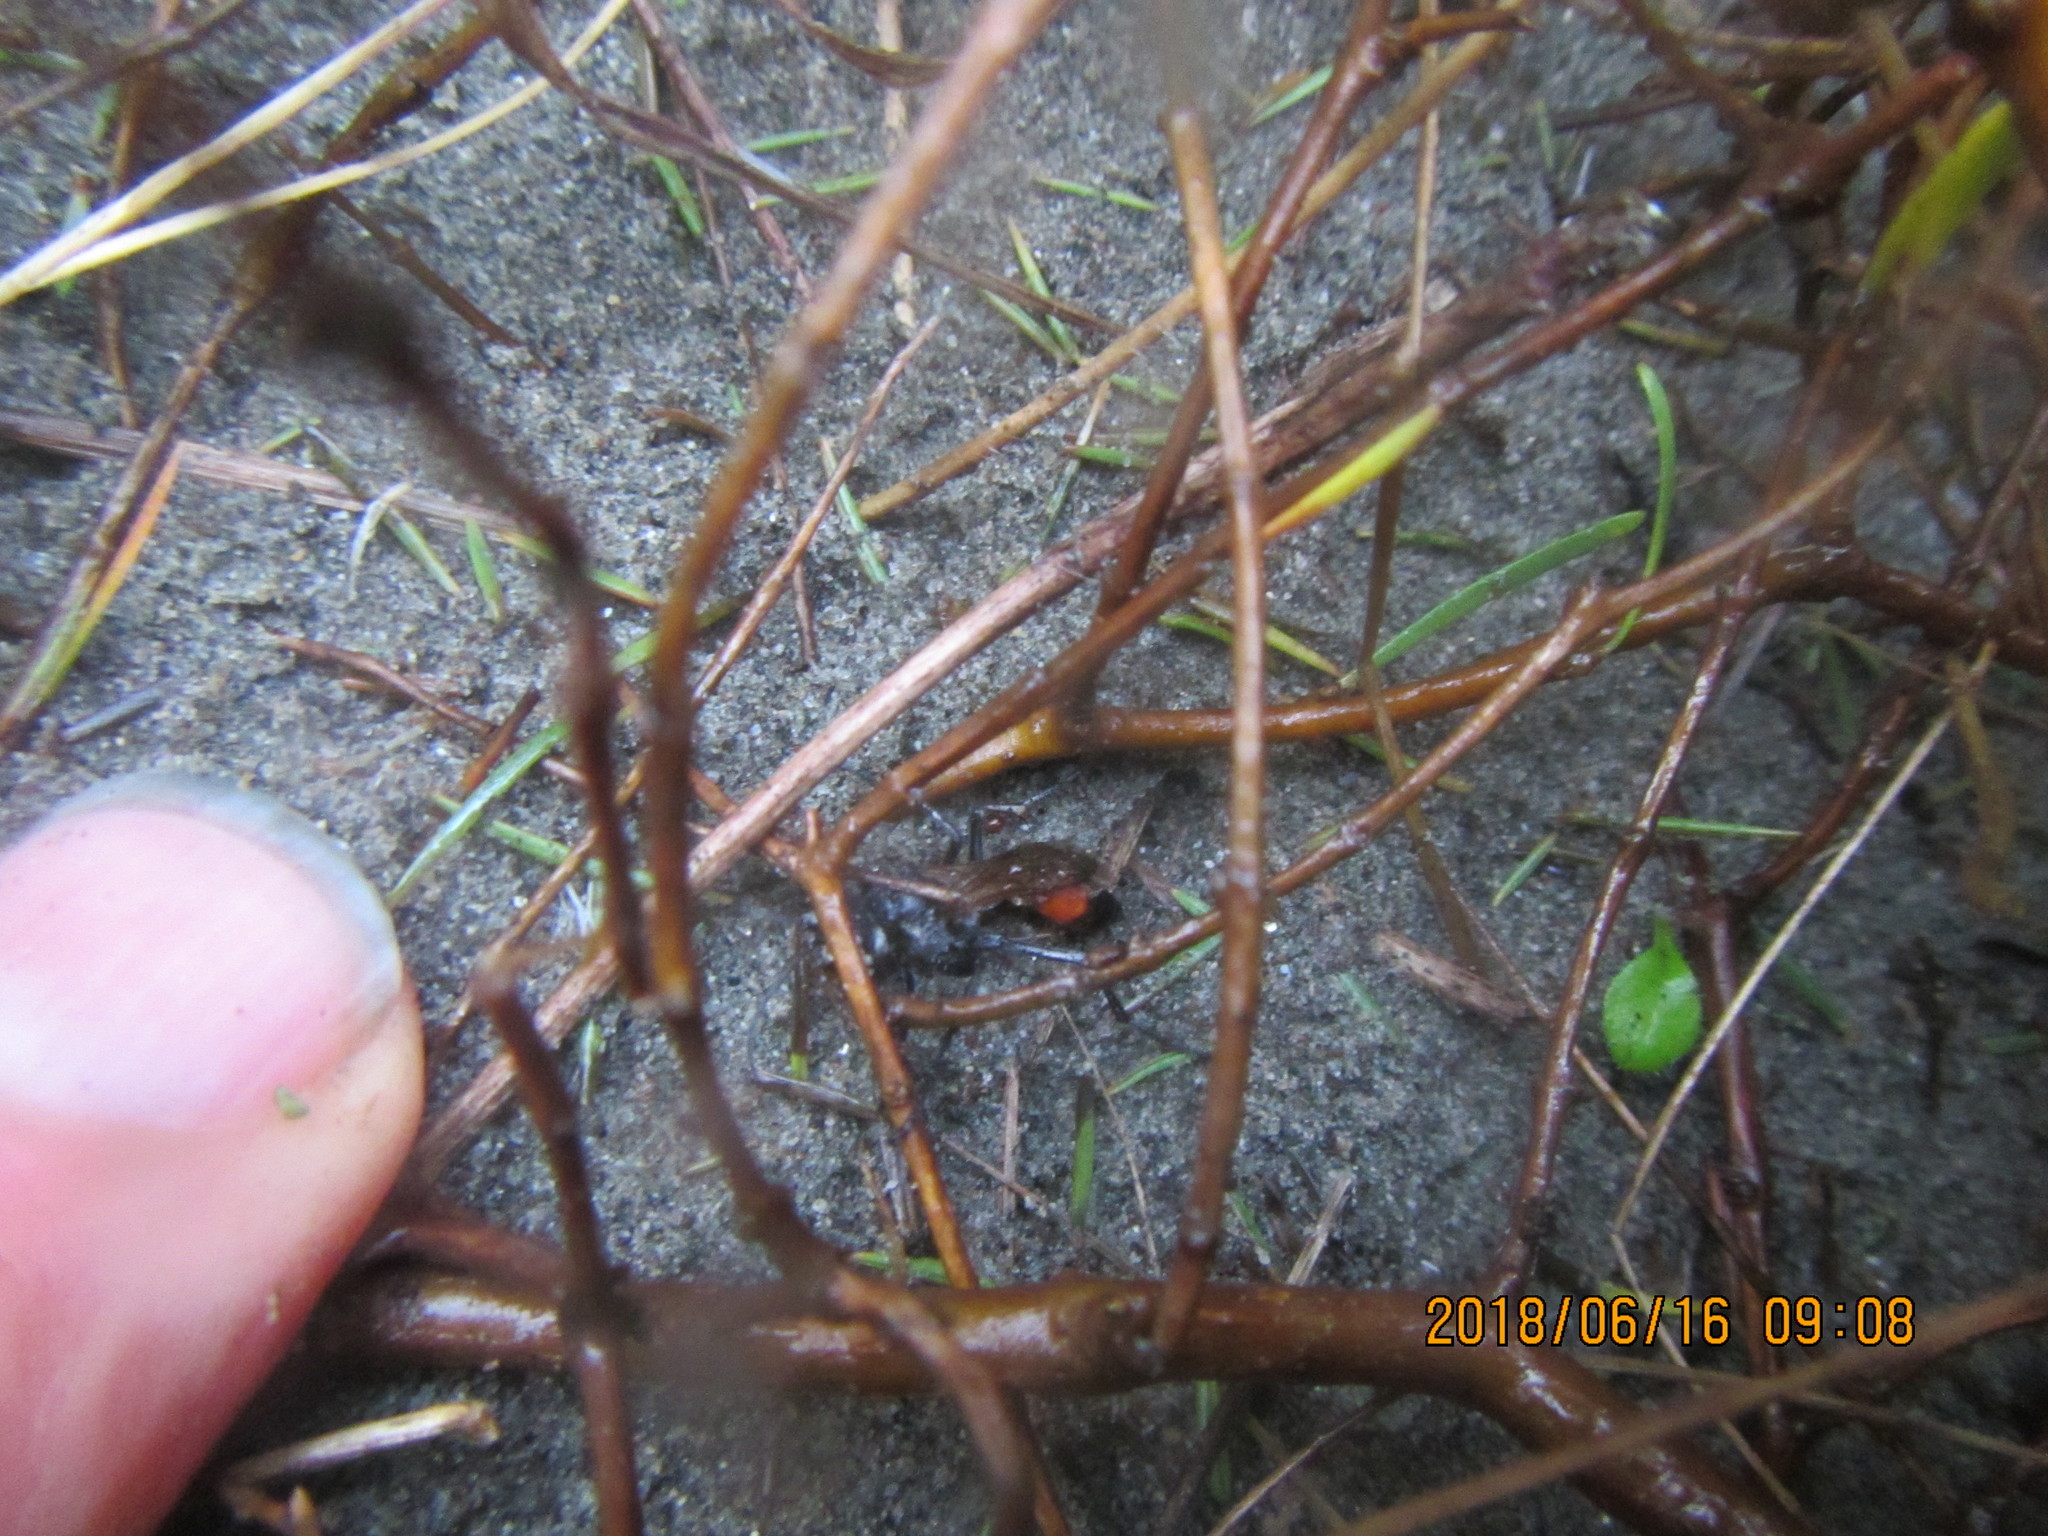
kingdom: Plantae
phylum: Tracheophyta
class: Magnoliopsida
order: Gentianales
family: Rubiaceae
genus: Coprosma
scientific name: Coprosma acerosa
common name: Sand coprosma
